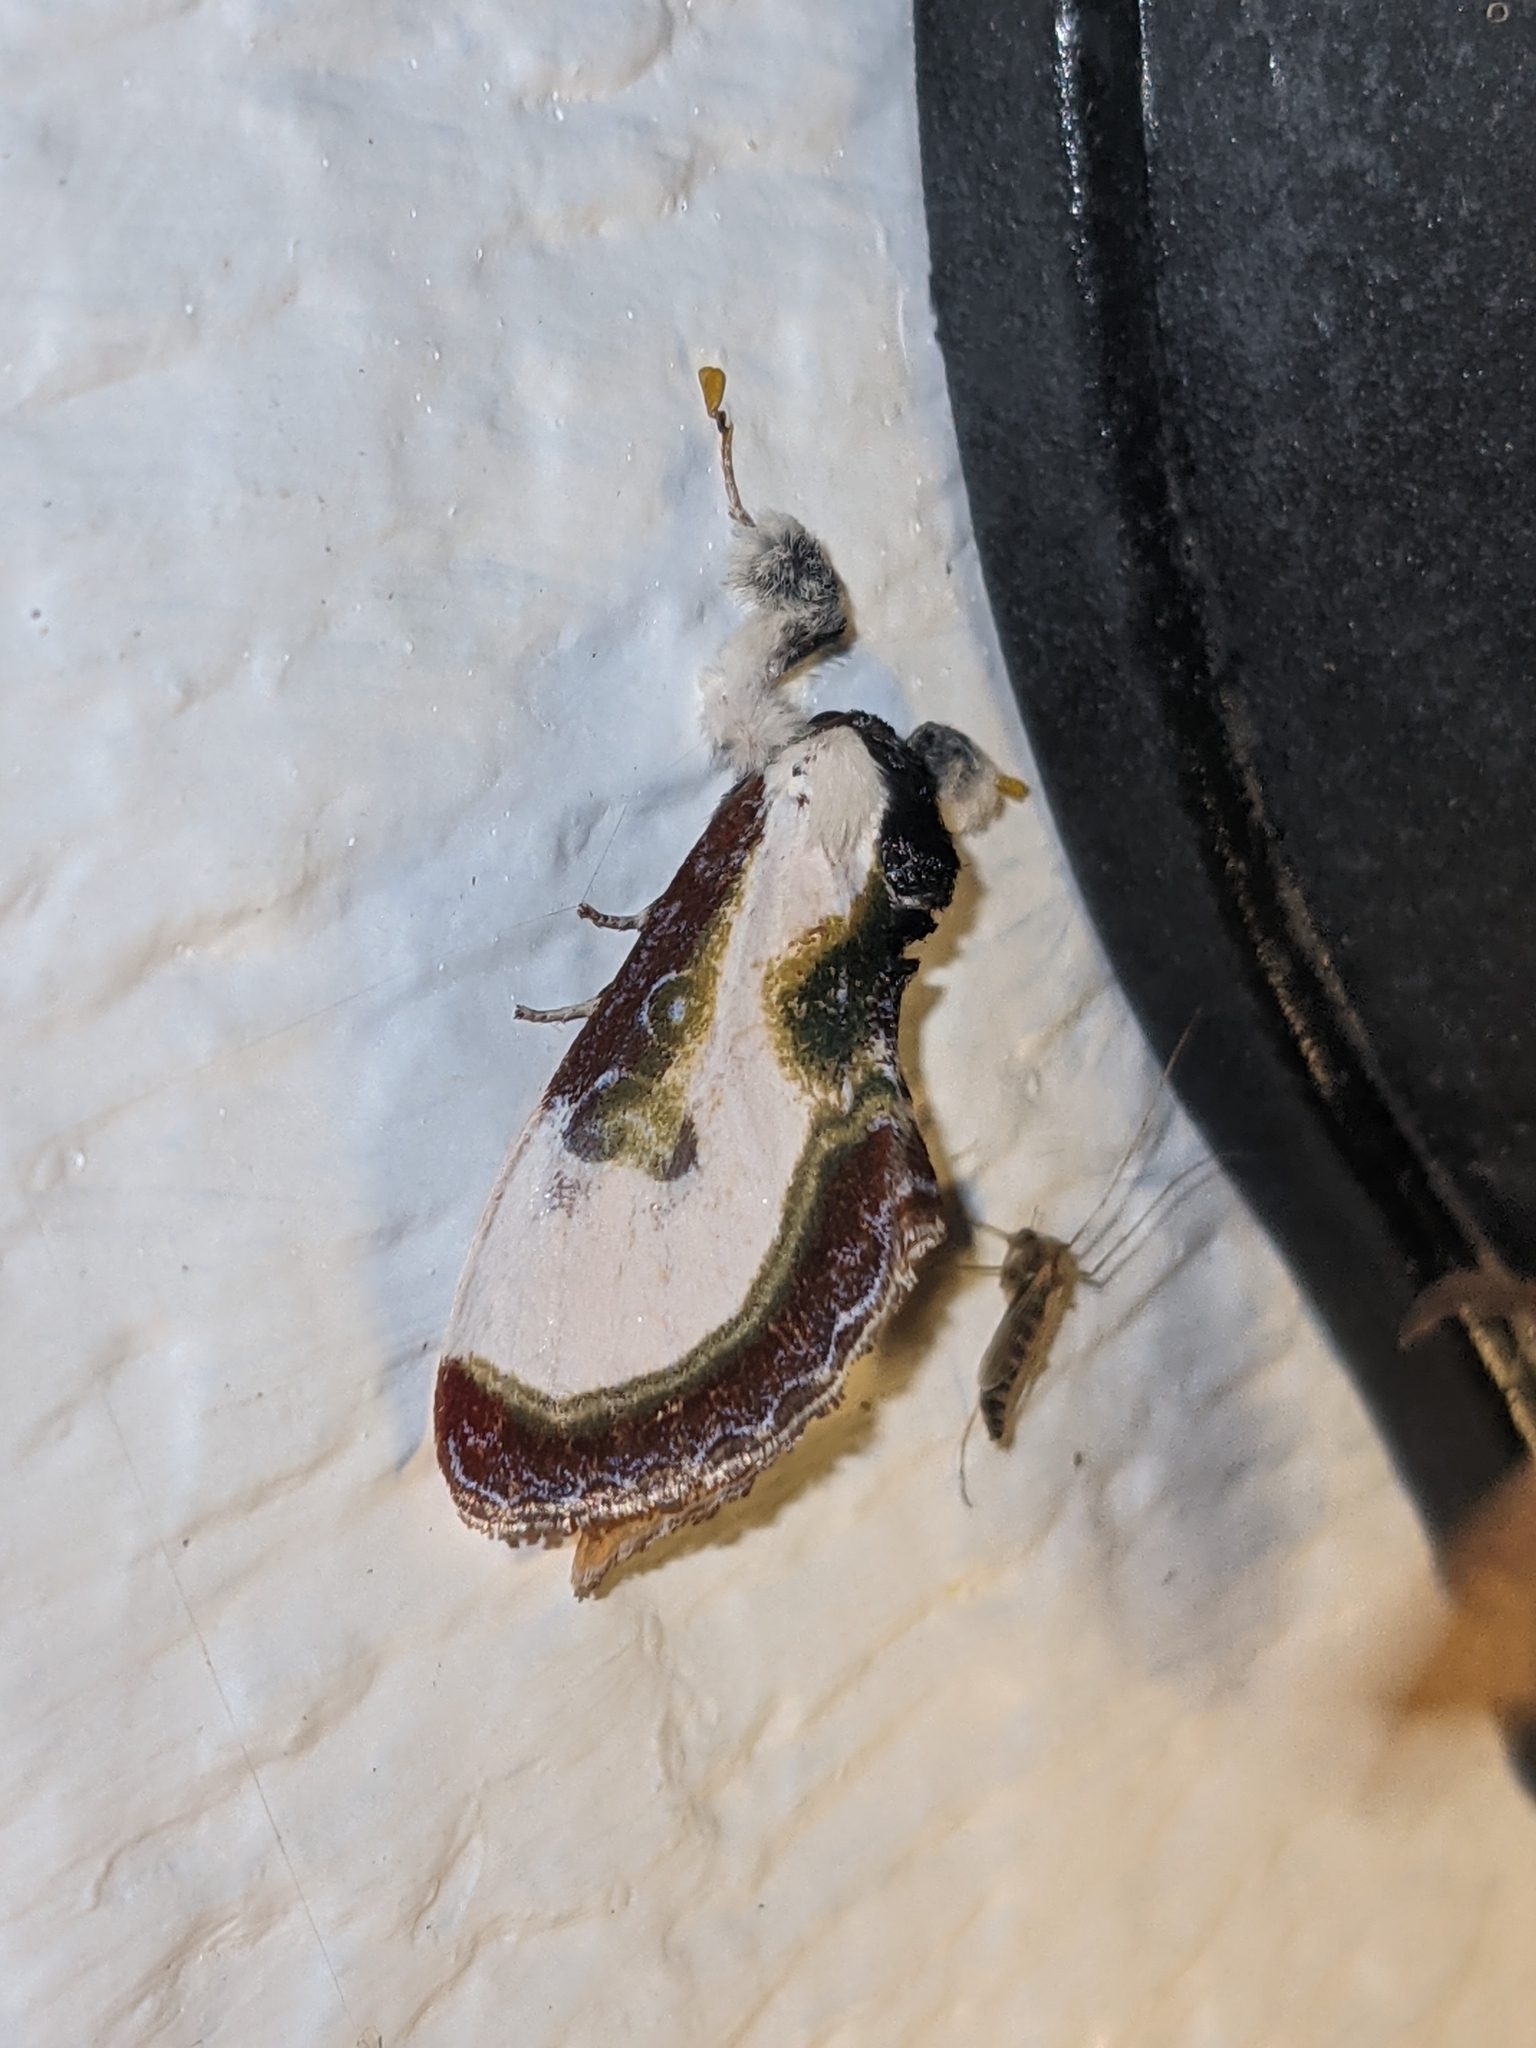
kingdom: Animalia
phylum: Arthropoda
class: Insecta
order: Lepidoptera
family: Noctuidae
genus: Eudryas
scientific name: Eudryas grata
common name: Beautiful wood-nymph
